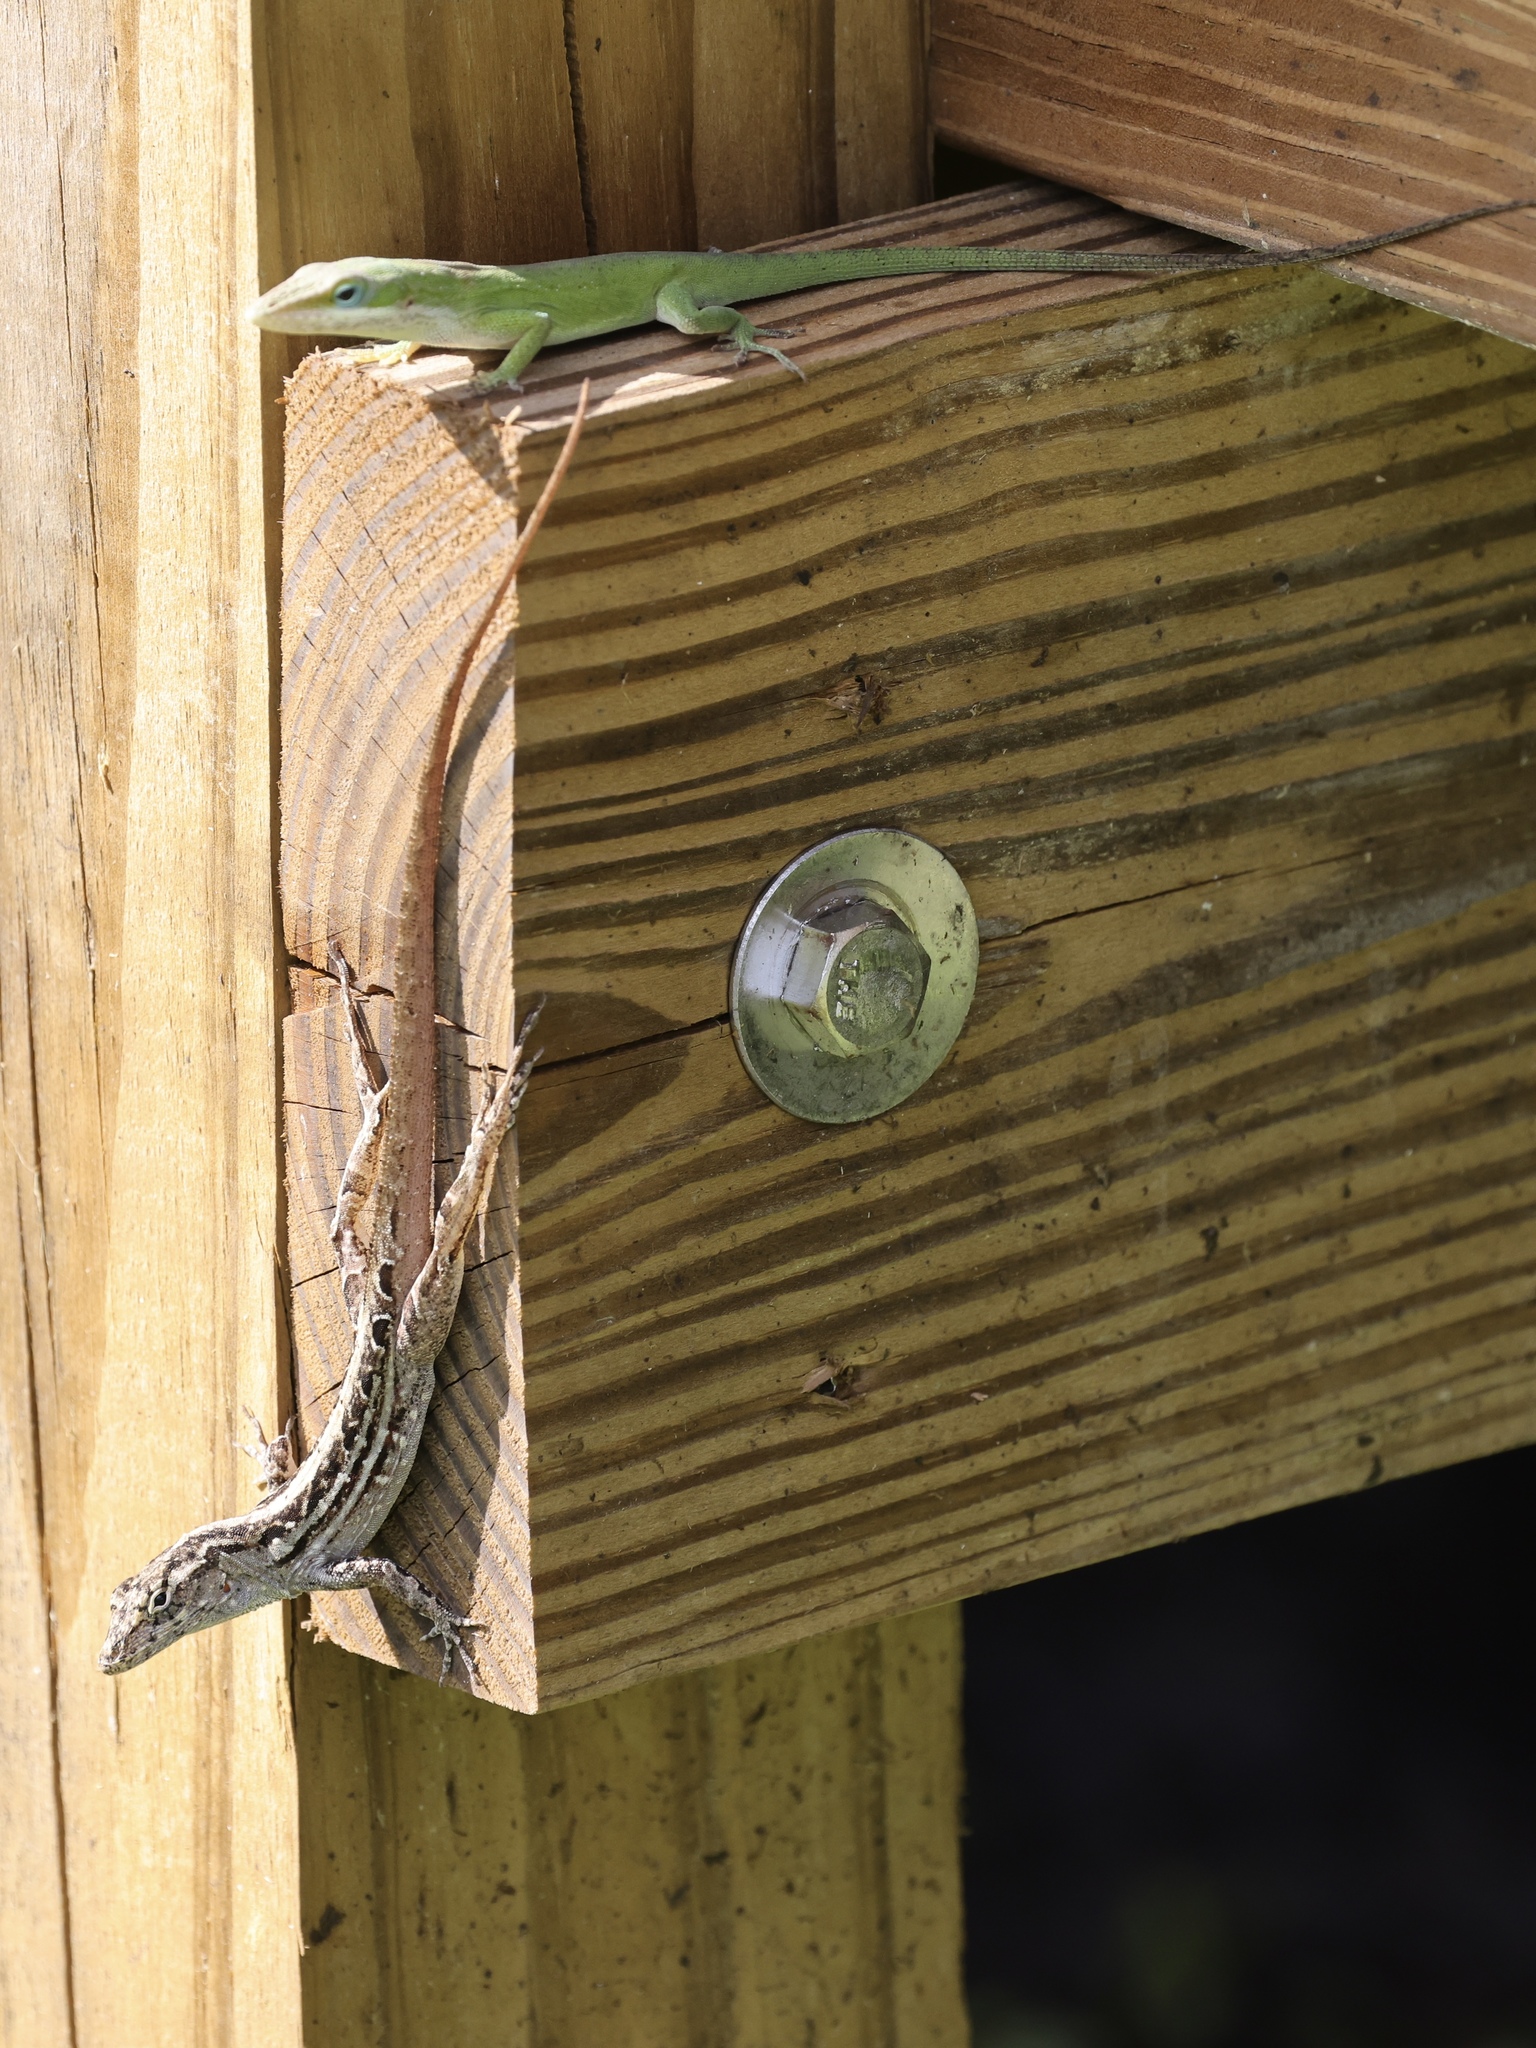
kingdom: Animalia
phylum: Chordata
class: Squamata
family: Dactyloidae
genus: Anolis
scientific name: Anolis sagrei
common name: Brown anole
